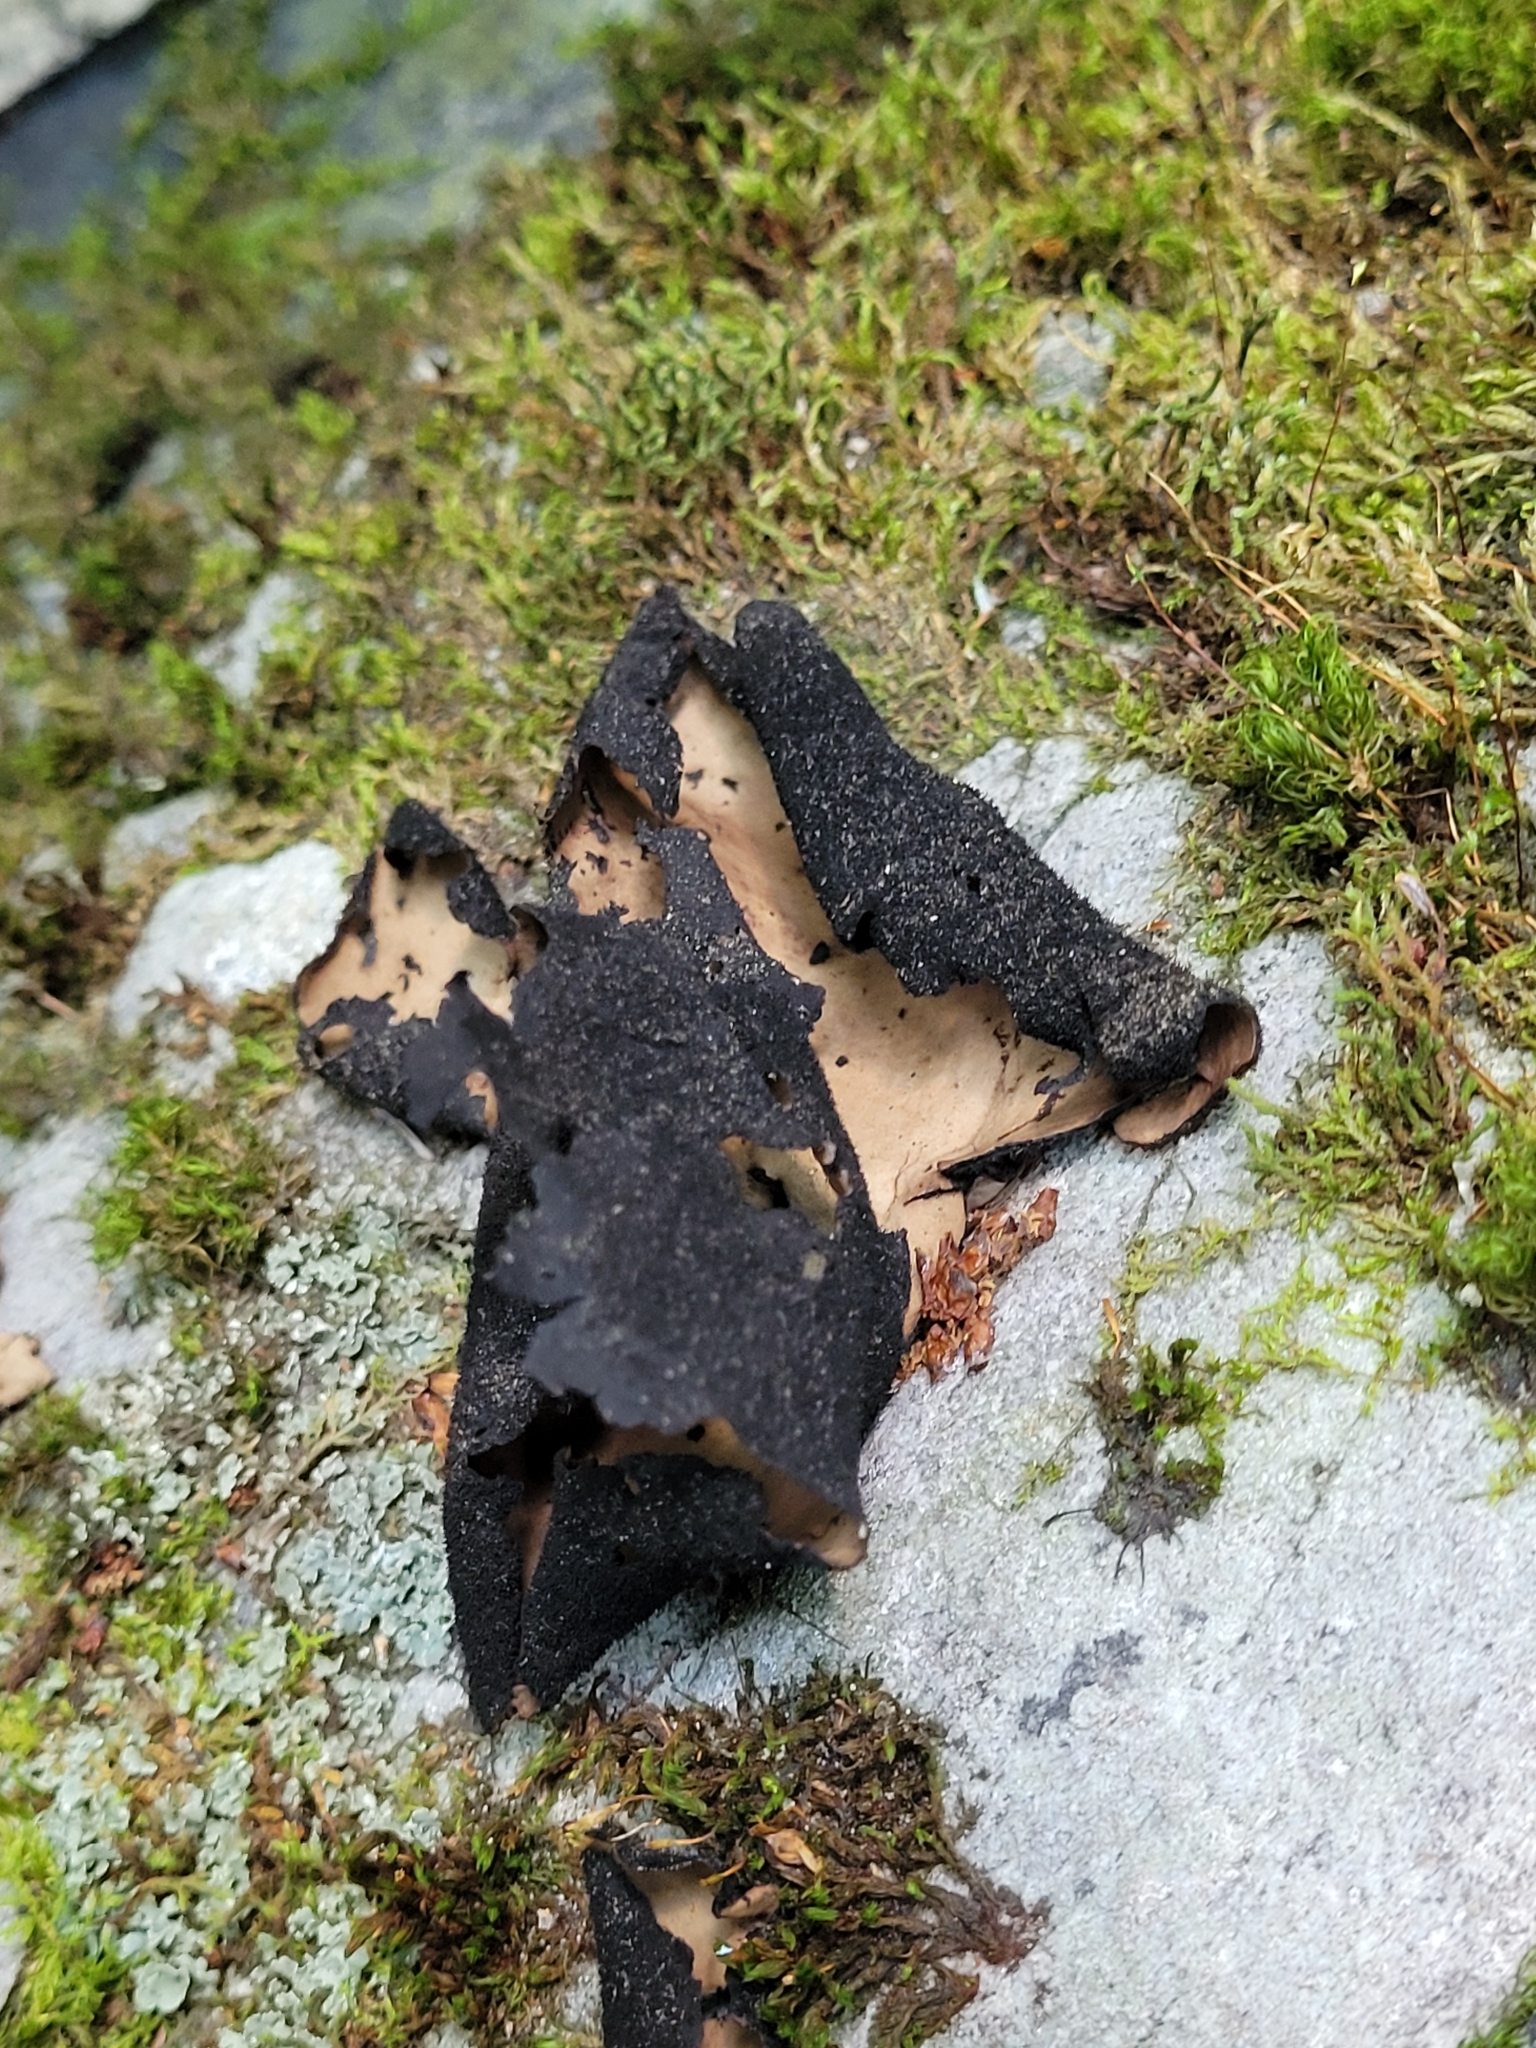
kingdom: Fungi
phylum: Ascomycota
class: Lecanoromycetes
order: Umbilicariales
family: Umbilicariaceae
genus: Umbilicaria
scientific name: Umbilicaria mammulata
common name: Smooth rock tripe
